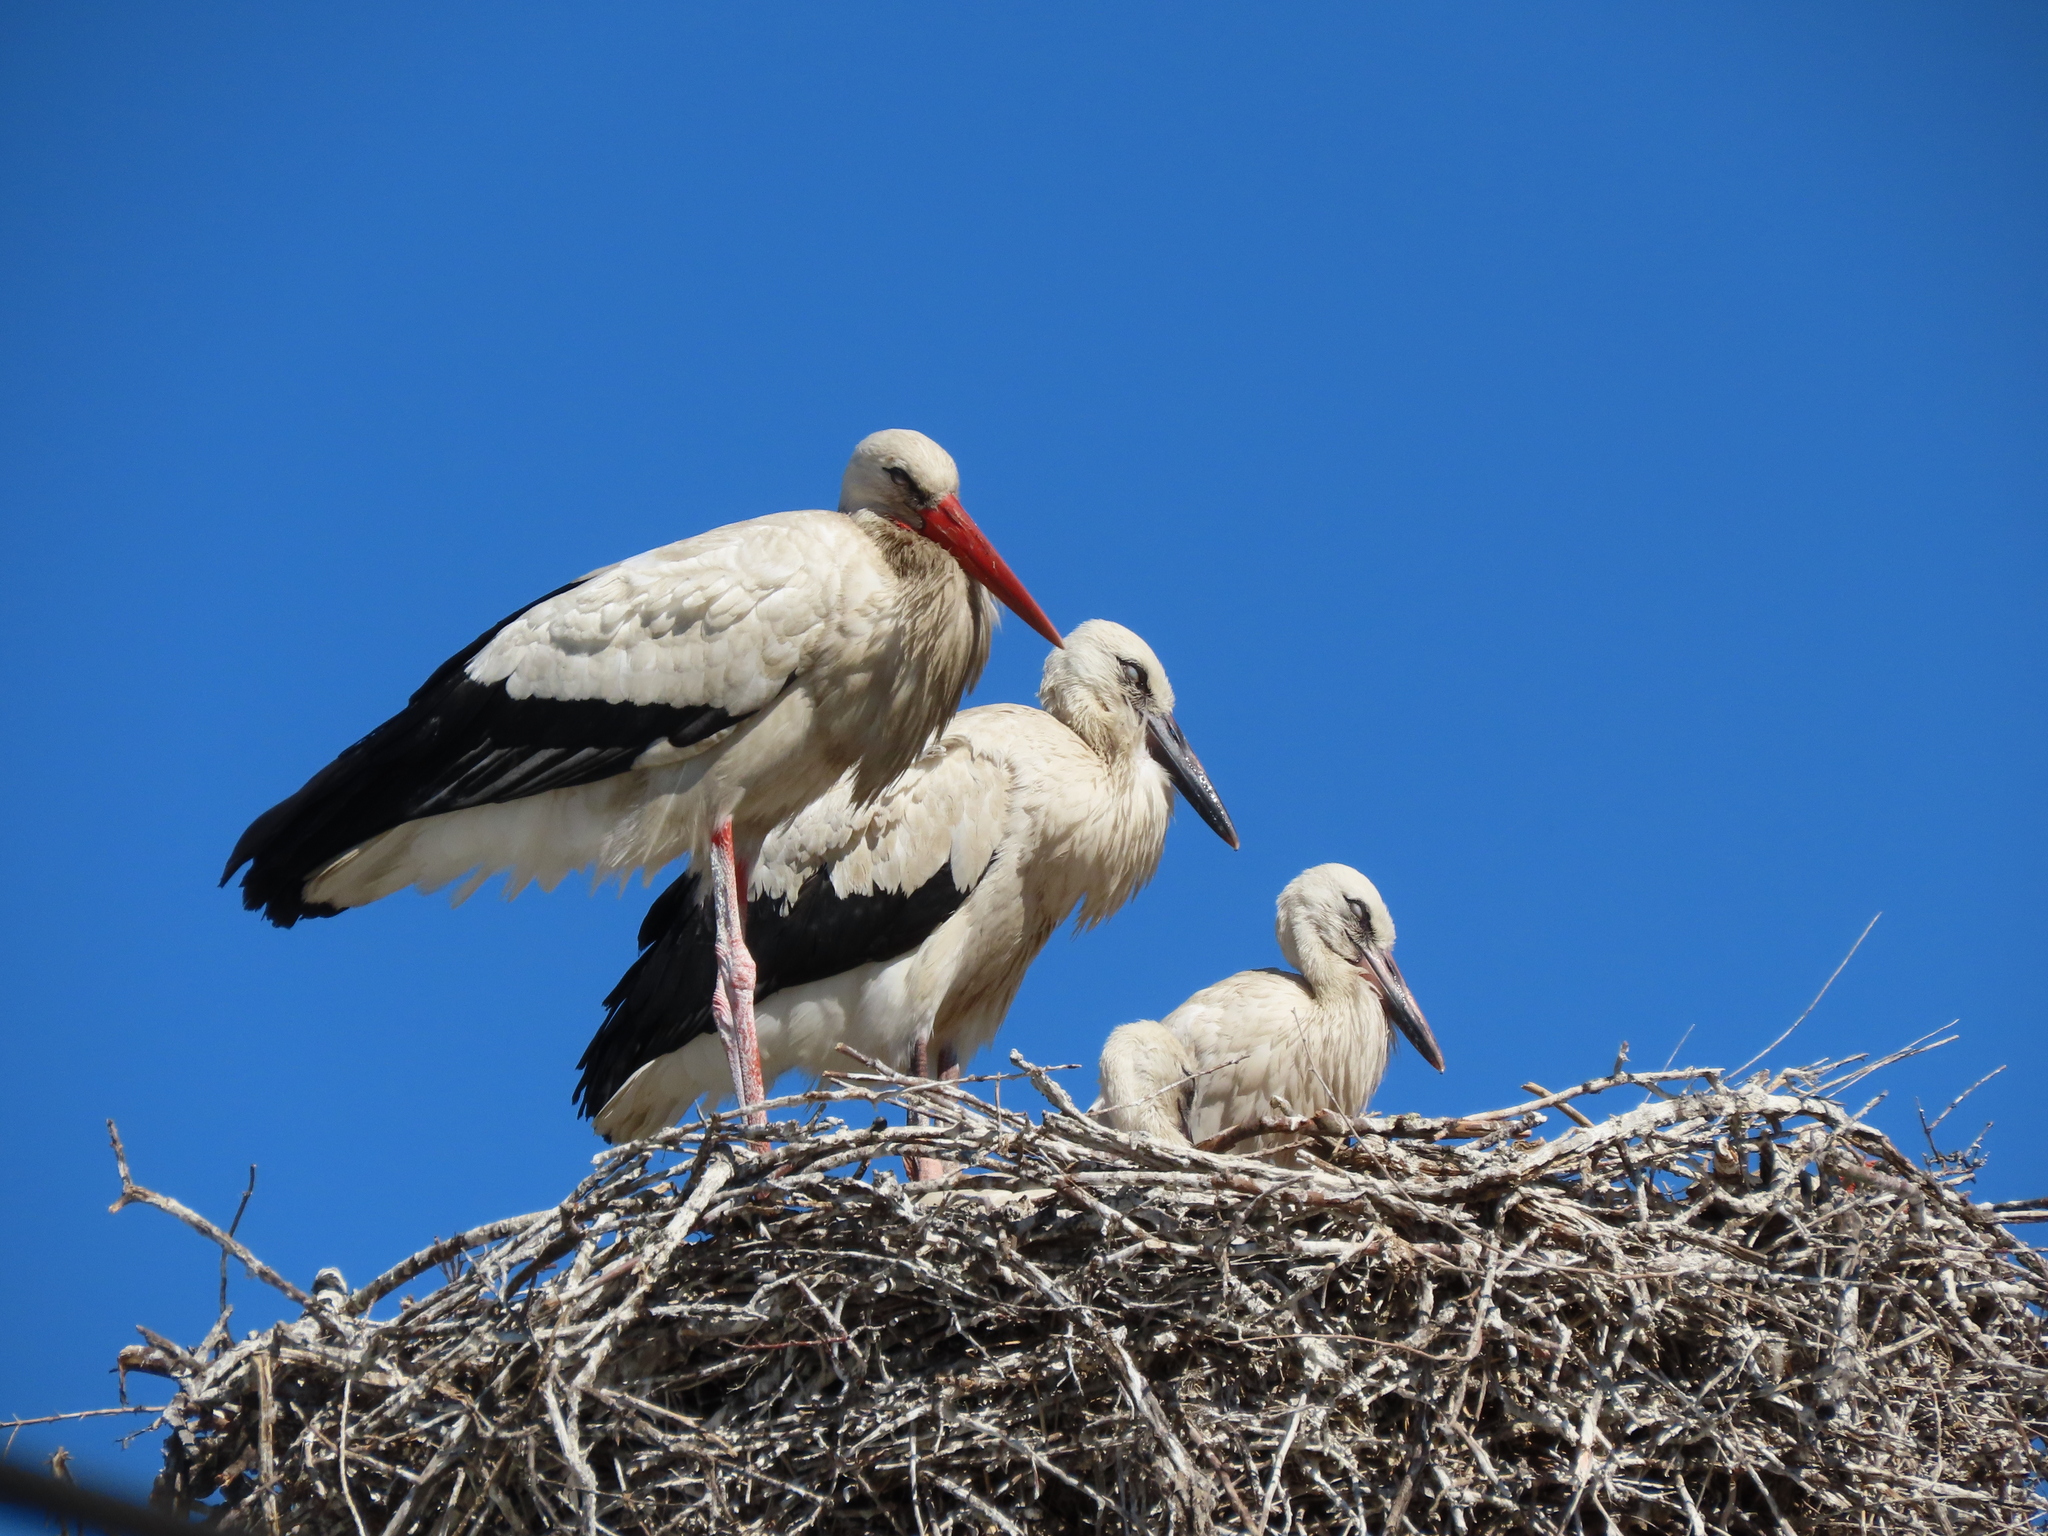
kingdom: Animalia
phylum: Chordata
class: Aves
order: Ciconiiformes
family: Ciconiidae
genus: Ciconia
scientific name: Ciconia ciconia
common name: White stork
